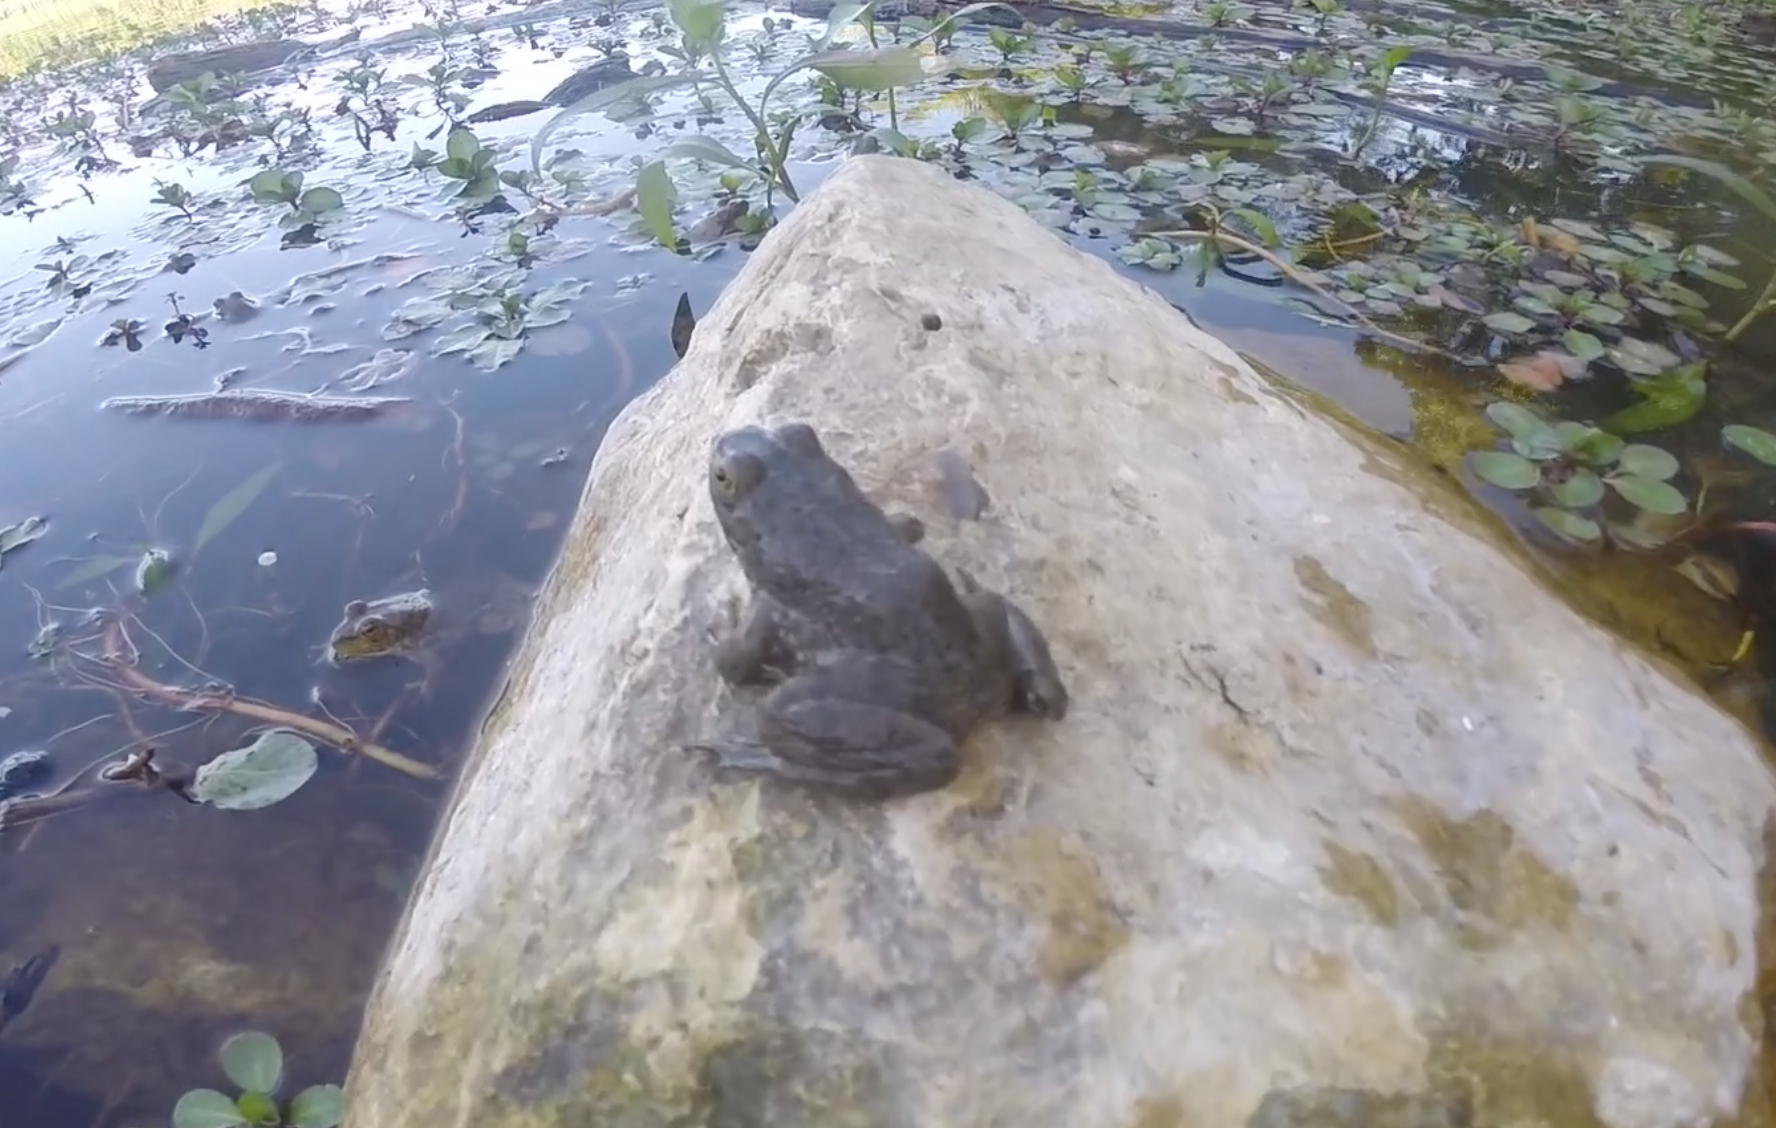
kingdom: Animalia
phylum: Chordata
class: Amphibia
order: Anura
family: Ranidae
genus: Lithobates
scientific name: Lithobates catesbeianus
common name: American bullfrog
